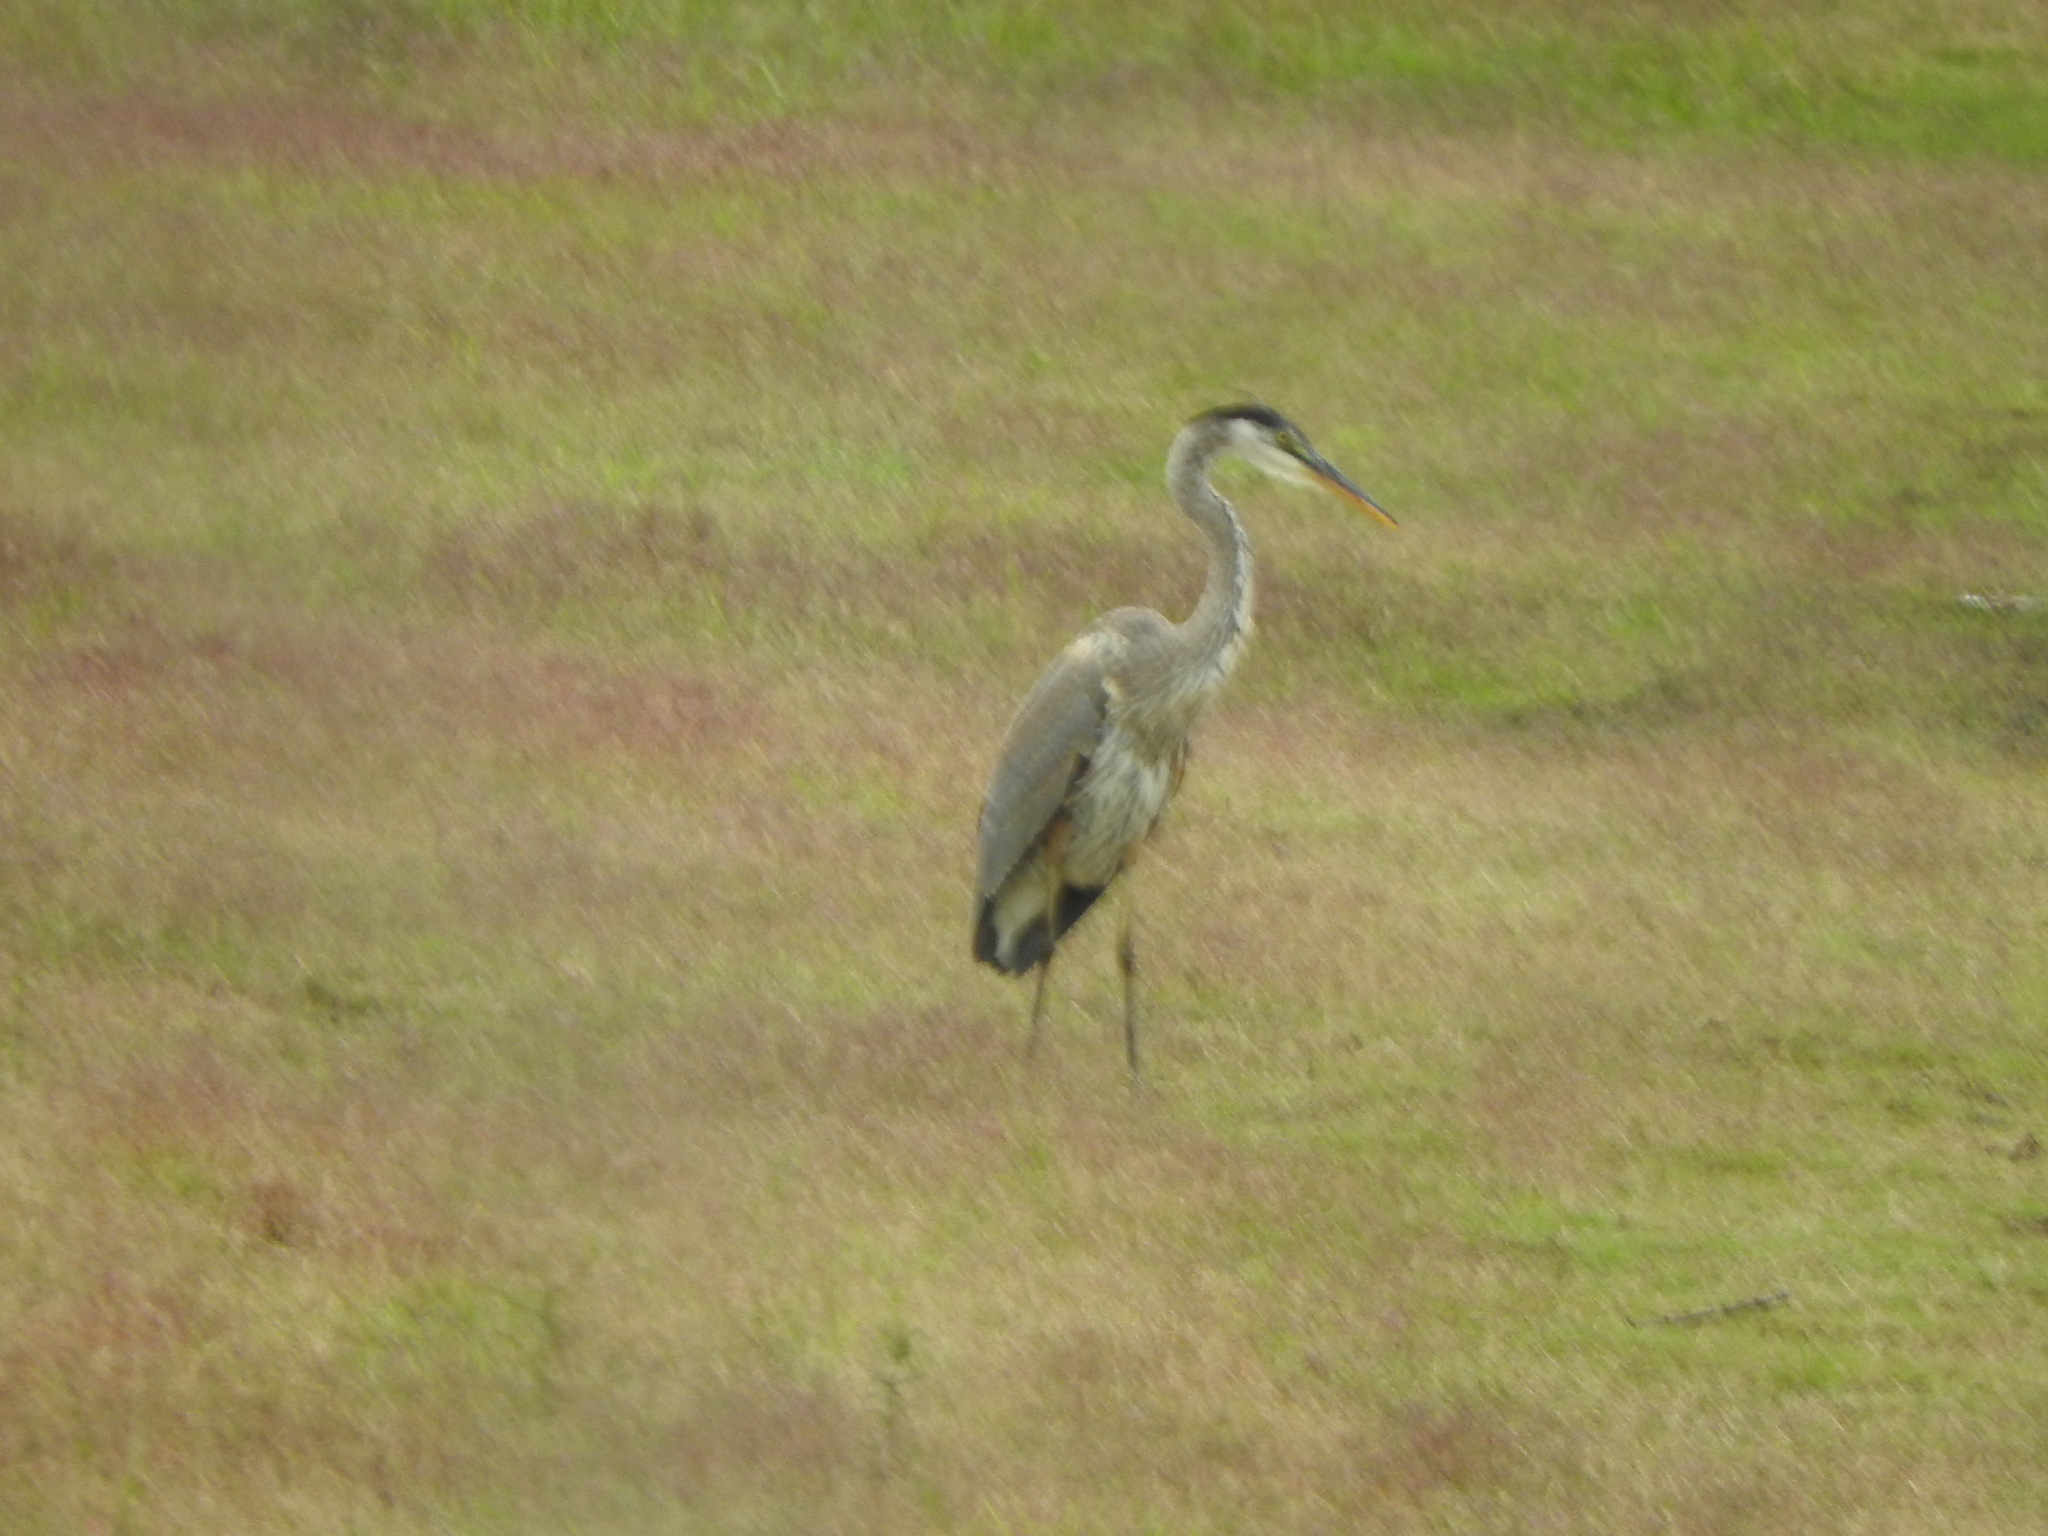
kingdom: Animalia
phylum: Chordata
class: Aves
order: Pelecaniformes
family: Ardeidae
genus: Ardea
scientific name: Ardea herodias
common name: Great blue heron
